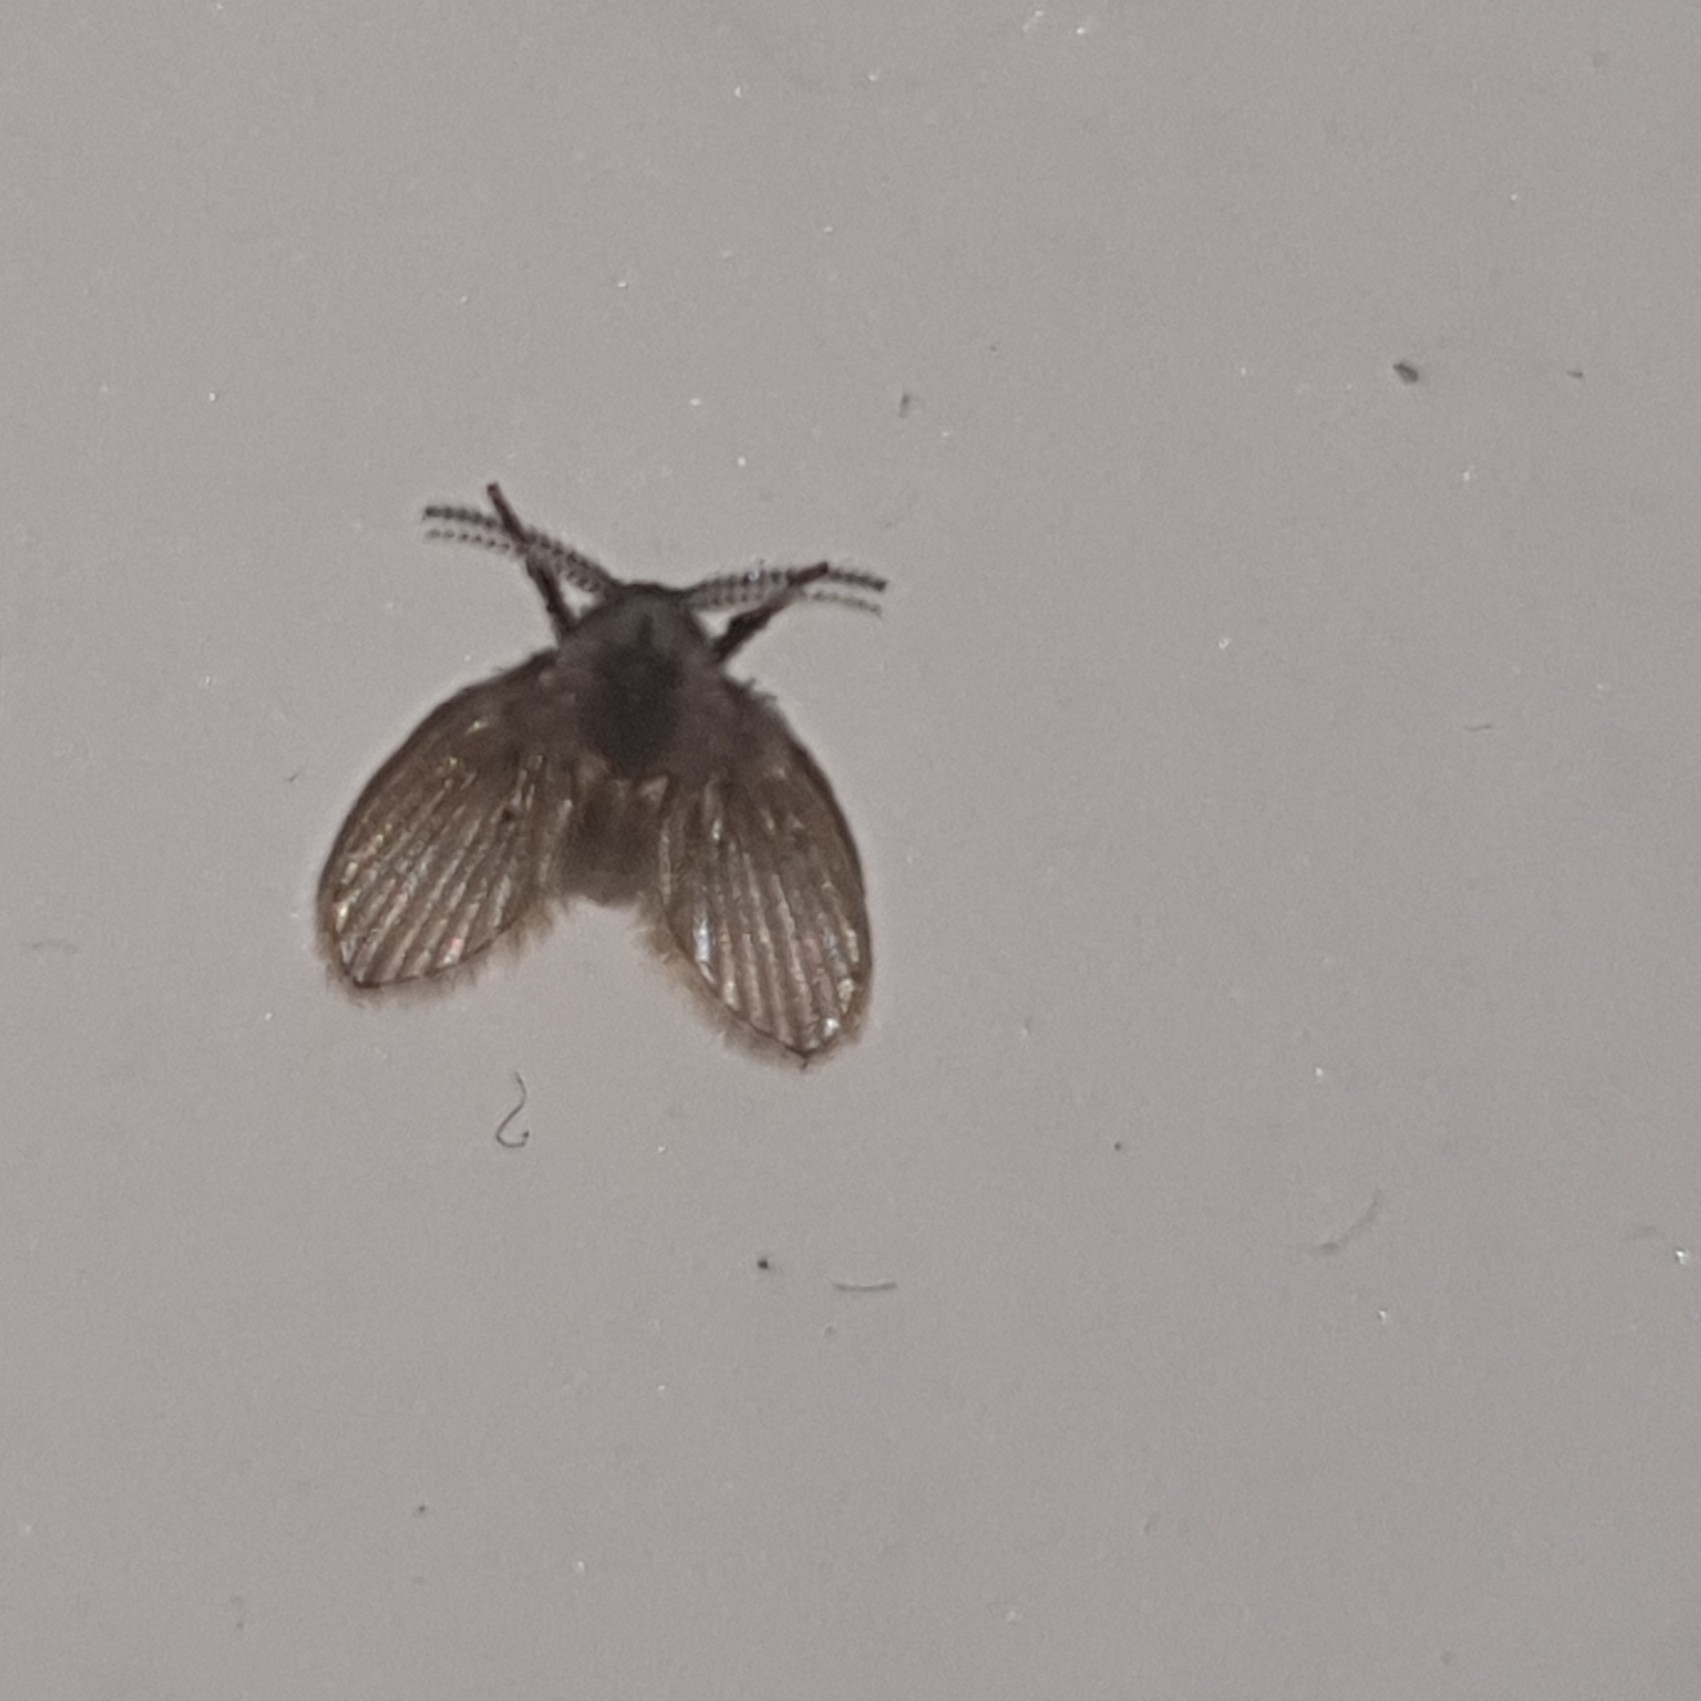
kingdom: Animalia
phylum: Arthropoda
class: Insecta
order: Diptera
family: Psychodidae
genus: Clogmia
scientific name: Clogmia albipunctatus
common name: White-spotted moth fly
